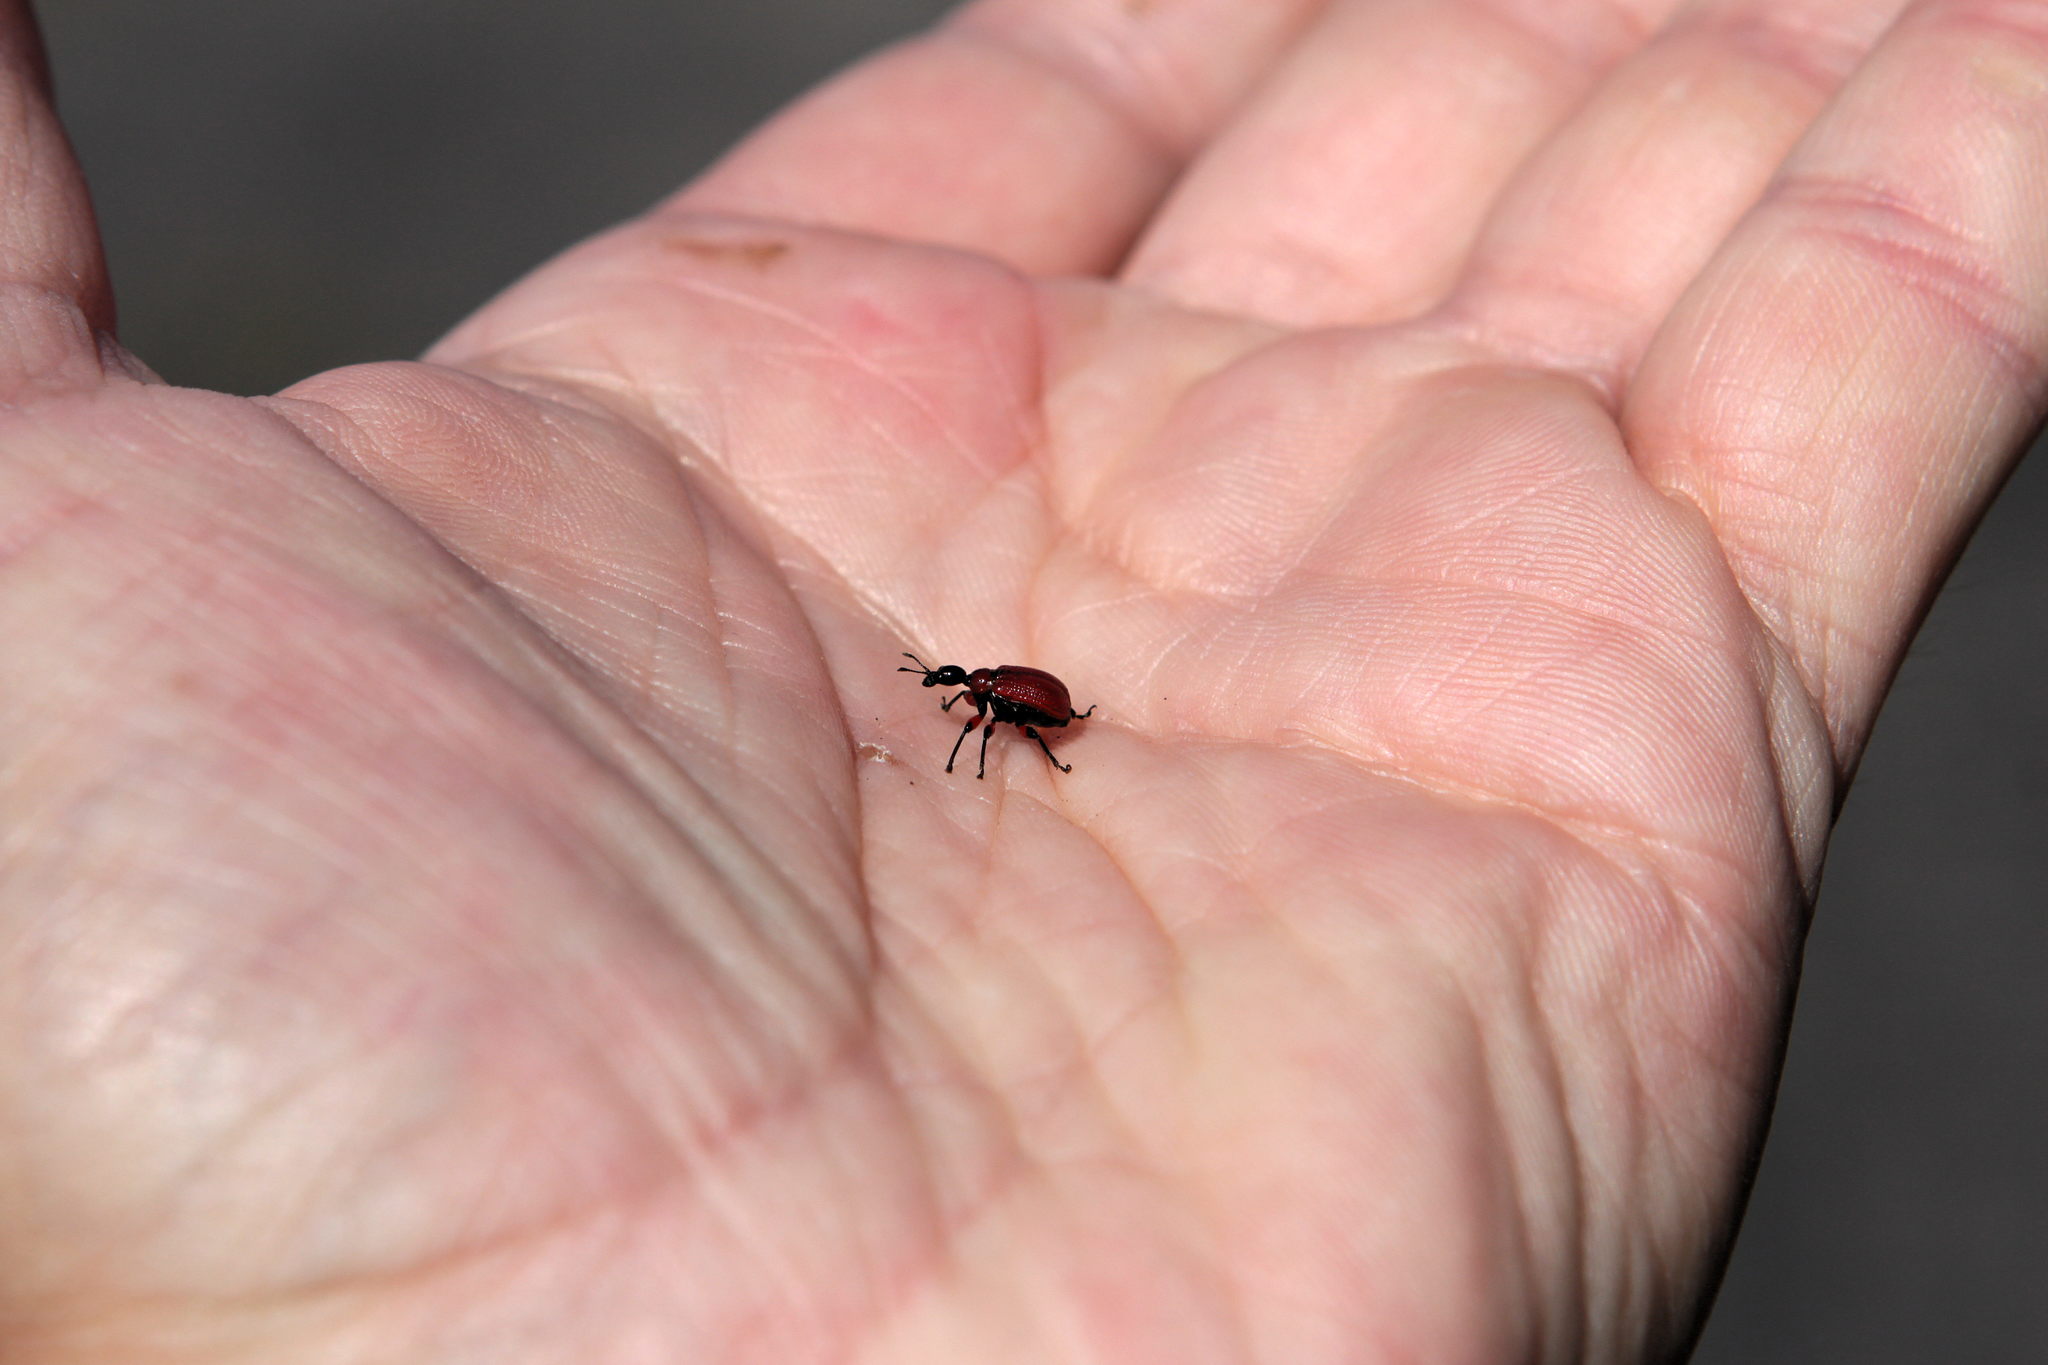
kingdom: Animalia
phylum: Arthropoda
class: Insecta
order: Coleoptera
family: Attelabidae
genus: Apoderus
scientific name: Apoderus coryli
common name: Hazel leaf roller
